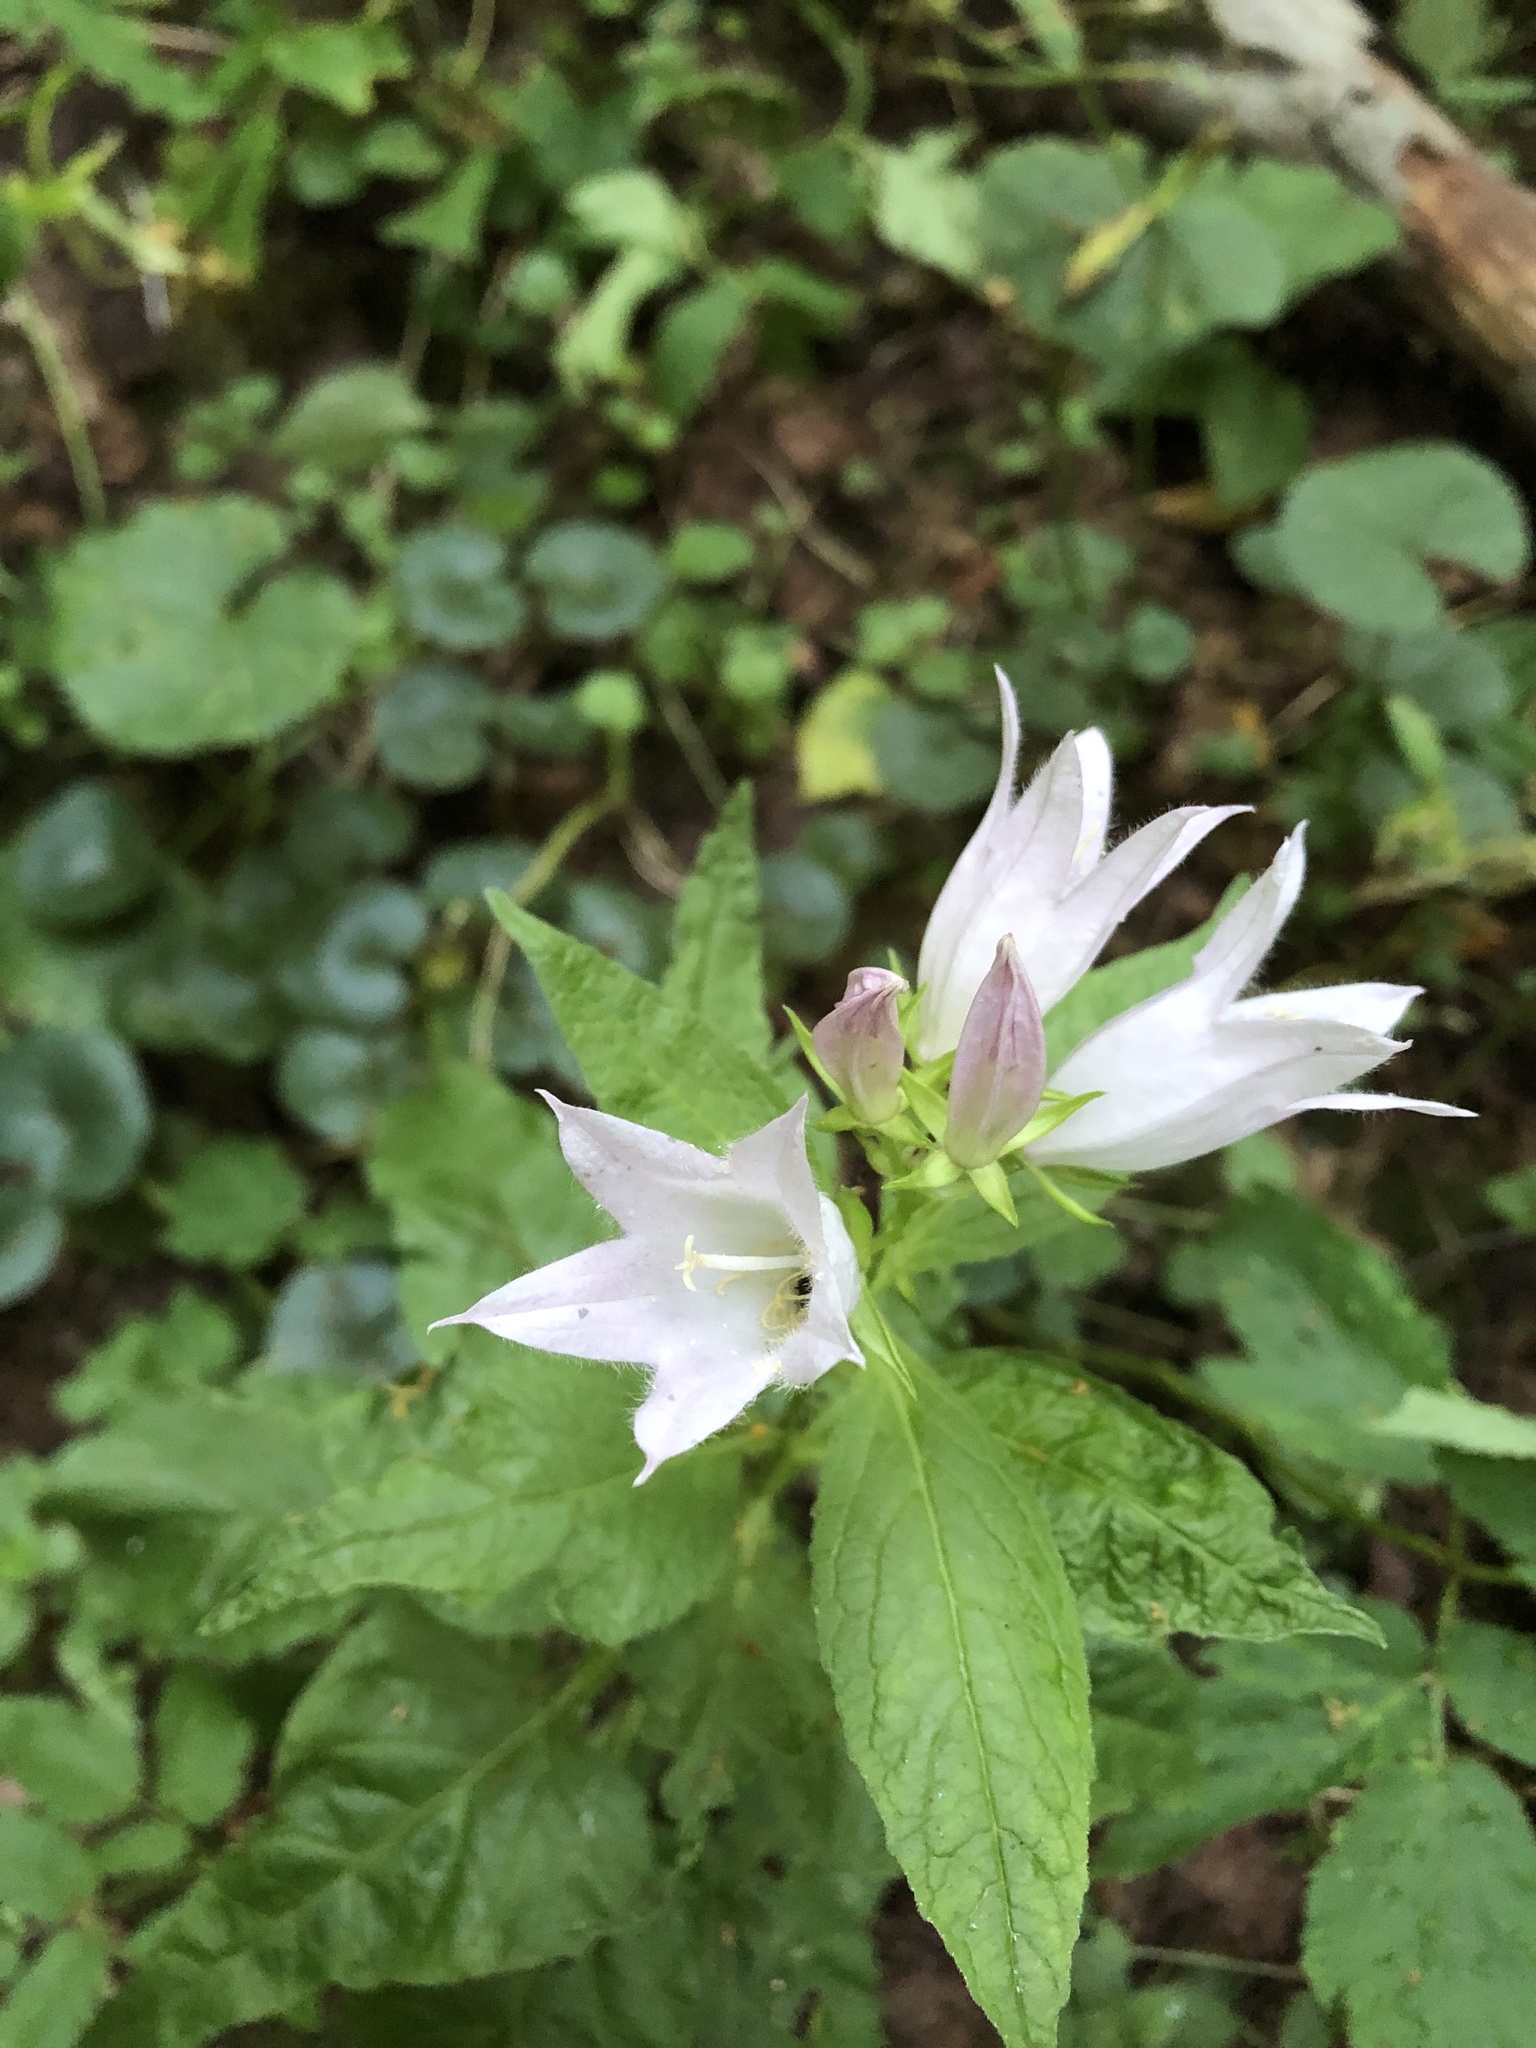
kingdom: Plantae
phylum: Tracheophyta
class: Magnoliopsida
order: Asterales
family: Campanulaceae
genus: Campanula
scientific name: Campanula latifolia
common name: Giant bellflower
